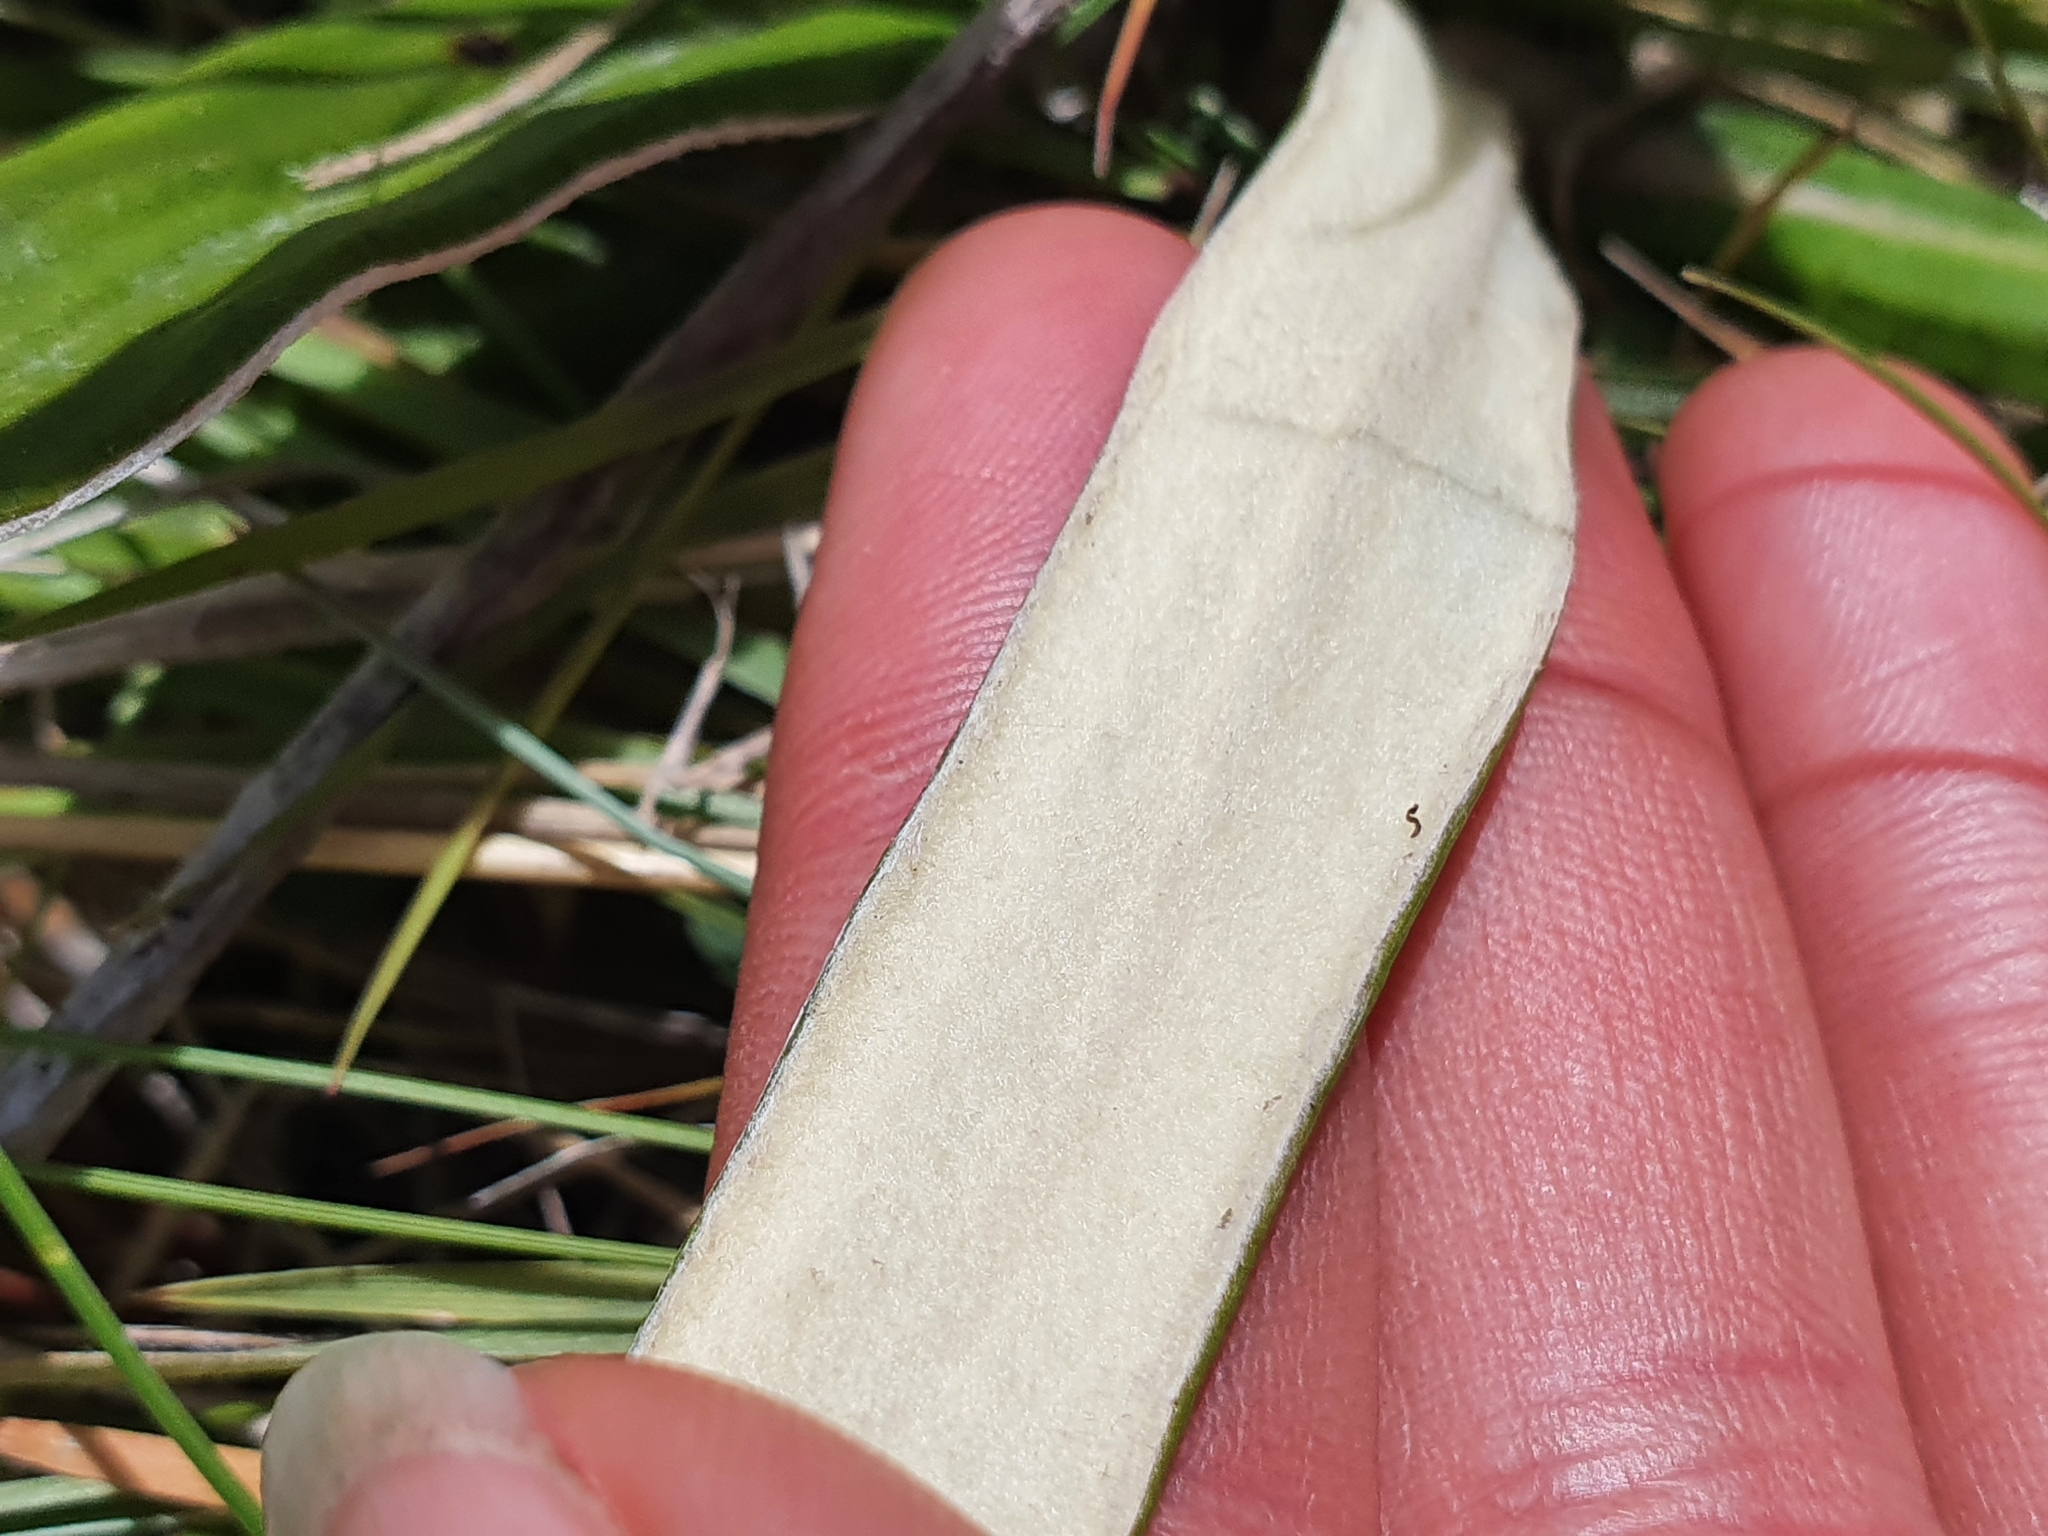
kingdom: Plantae
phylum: Tracheophyta
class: Magnoliopsida
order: Asterales
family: Asteraceae
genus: Celmisia
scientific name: Celmisia spectabilis
